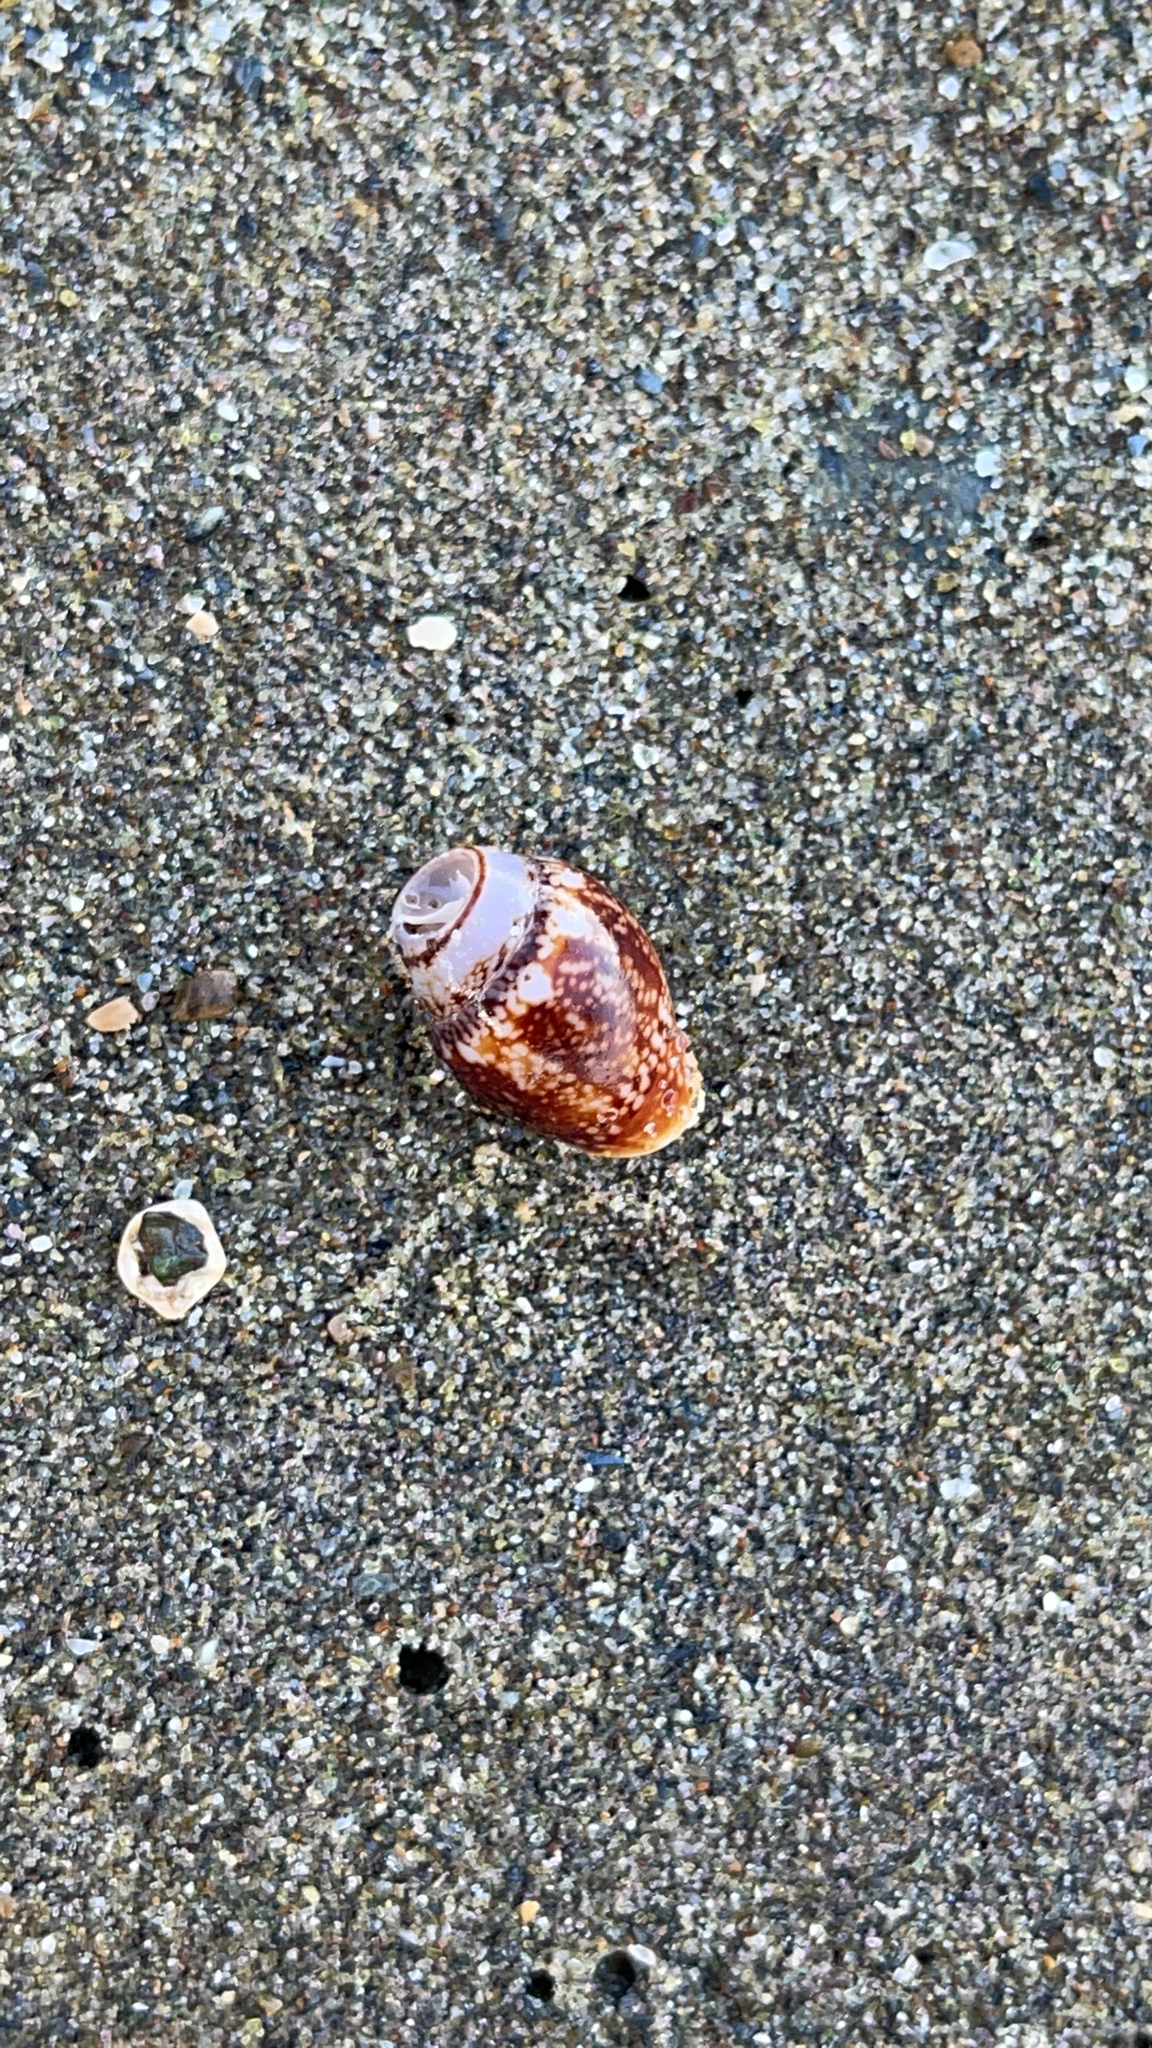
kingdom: Animalia
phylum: Mollusca
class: Gastropoda
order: Neogastropoda
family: Columbellidae
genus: Columbella
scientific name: Columbella rustica
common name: Rustic dove shell
